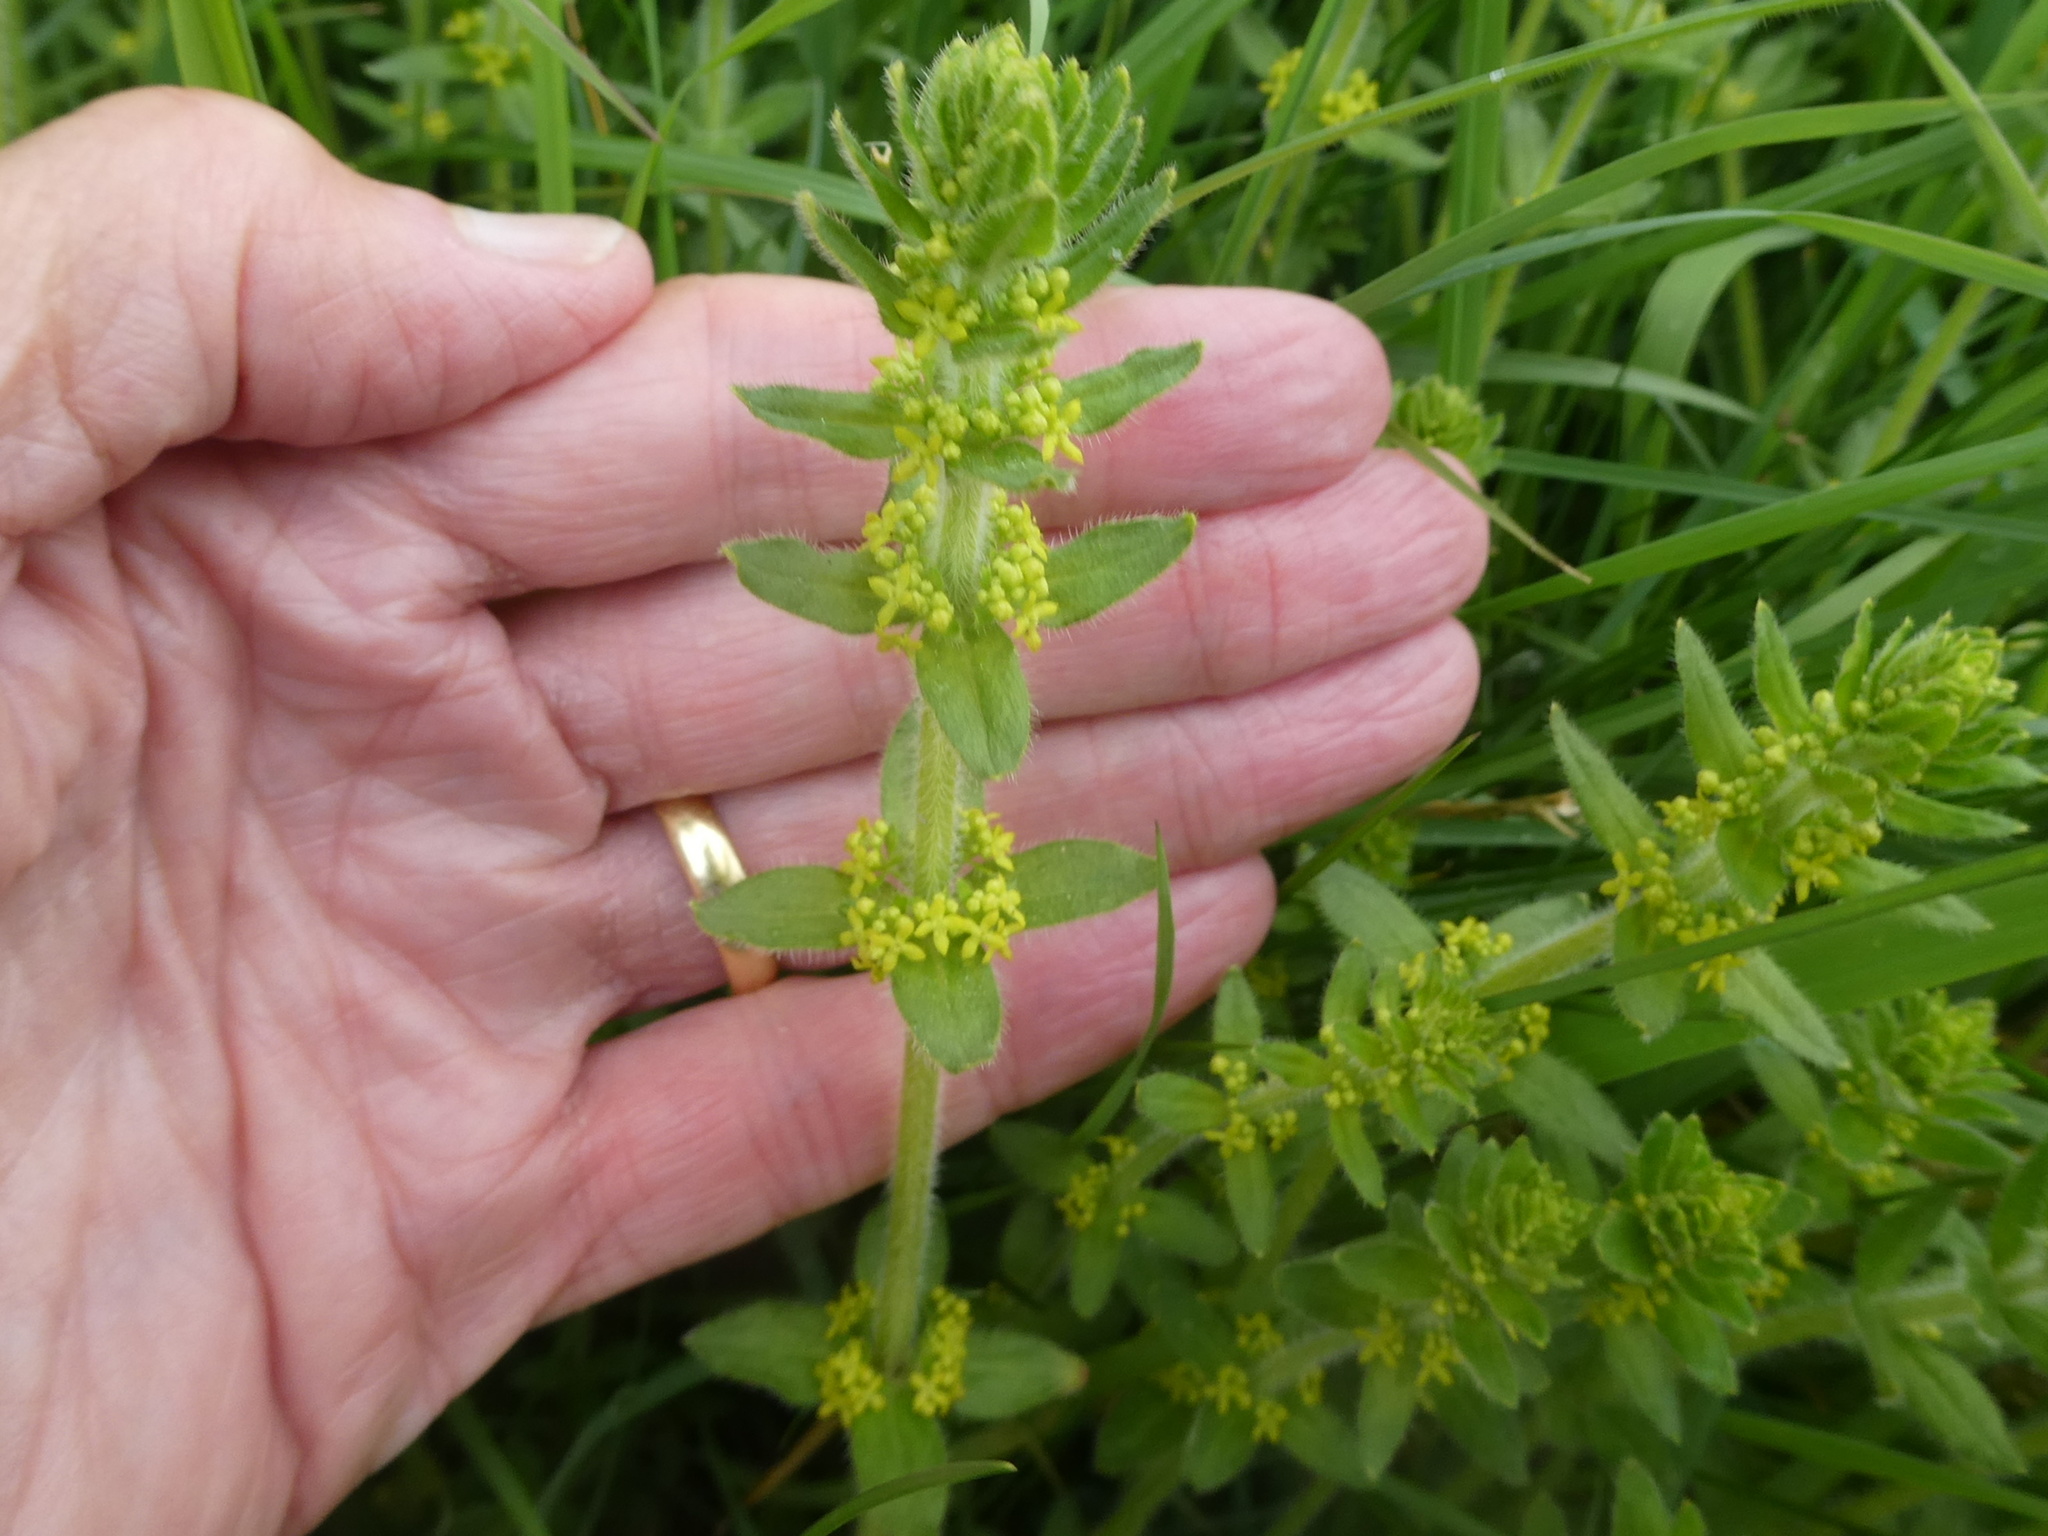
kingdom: Plantae
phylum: Tracheophyta
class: Magnoliopsida
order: Gentianales
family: Rubiaceae
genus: Cruciata
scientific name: Cruciata laevipes
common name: Crosswort
